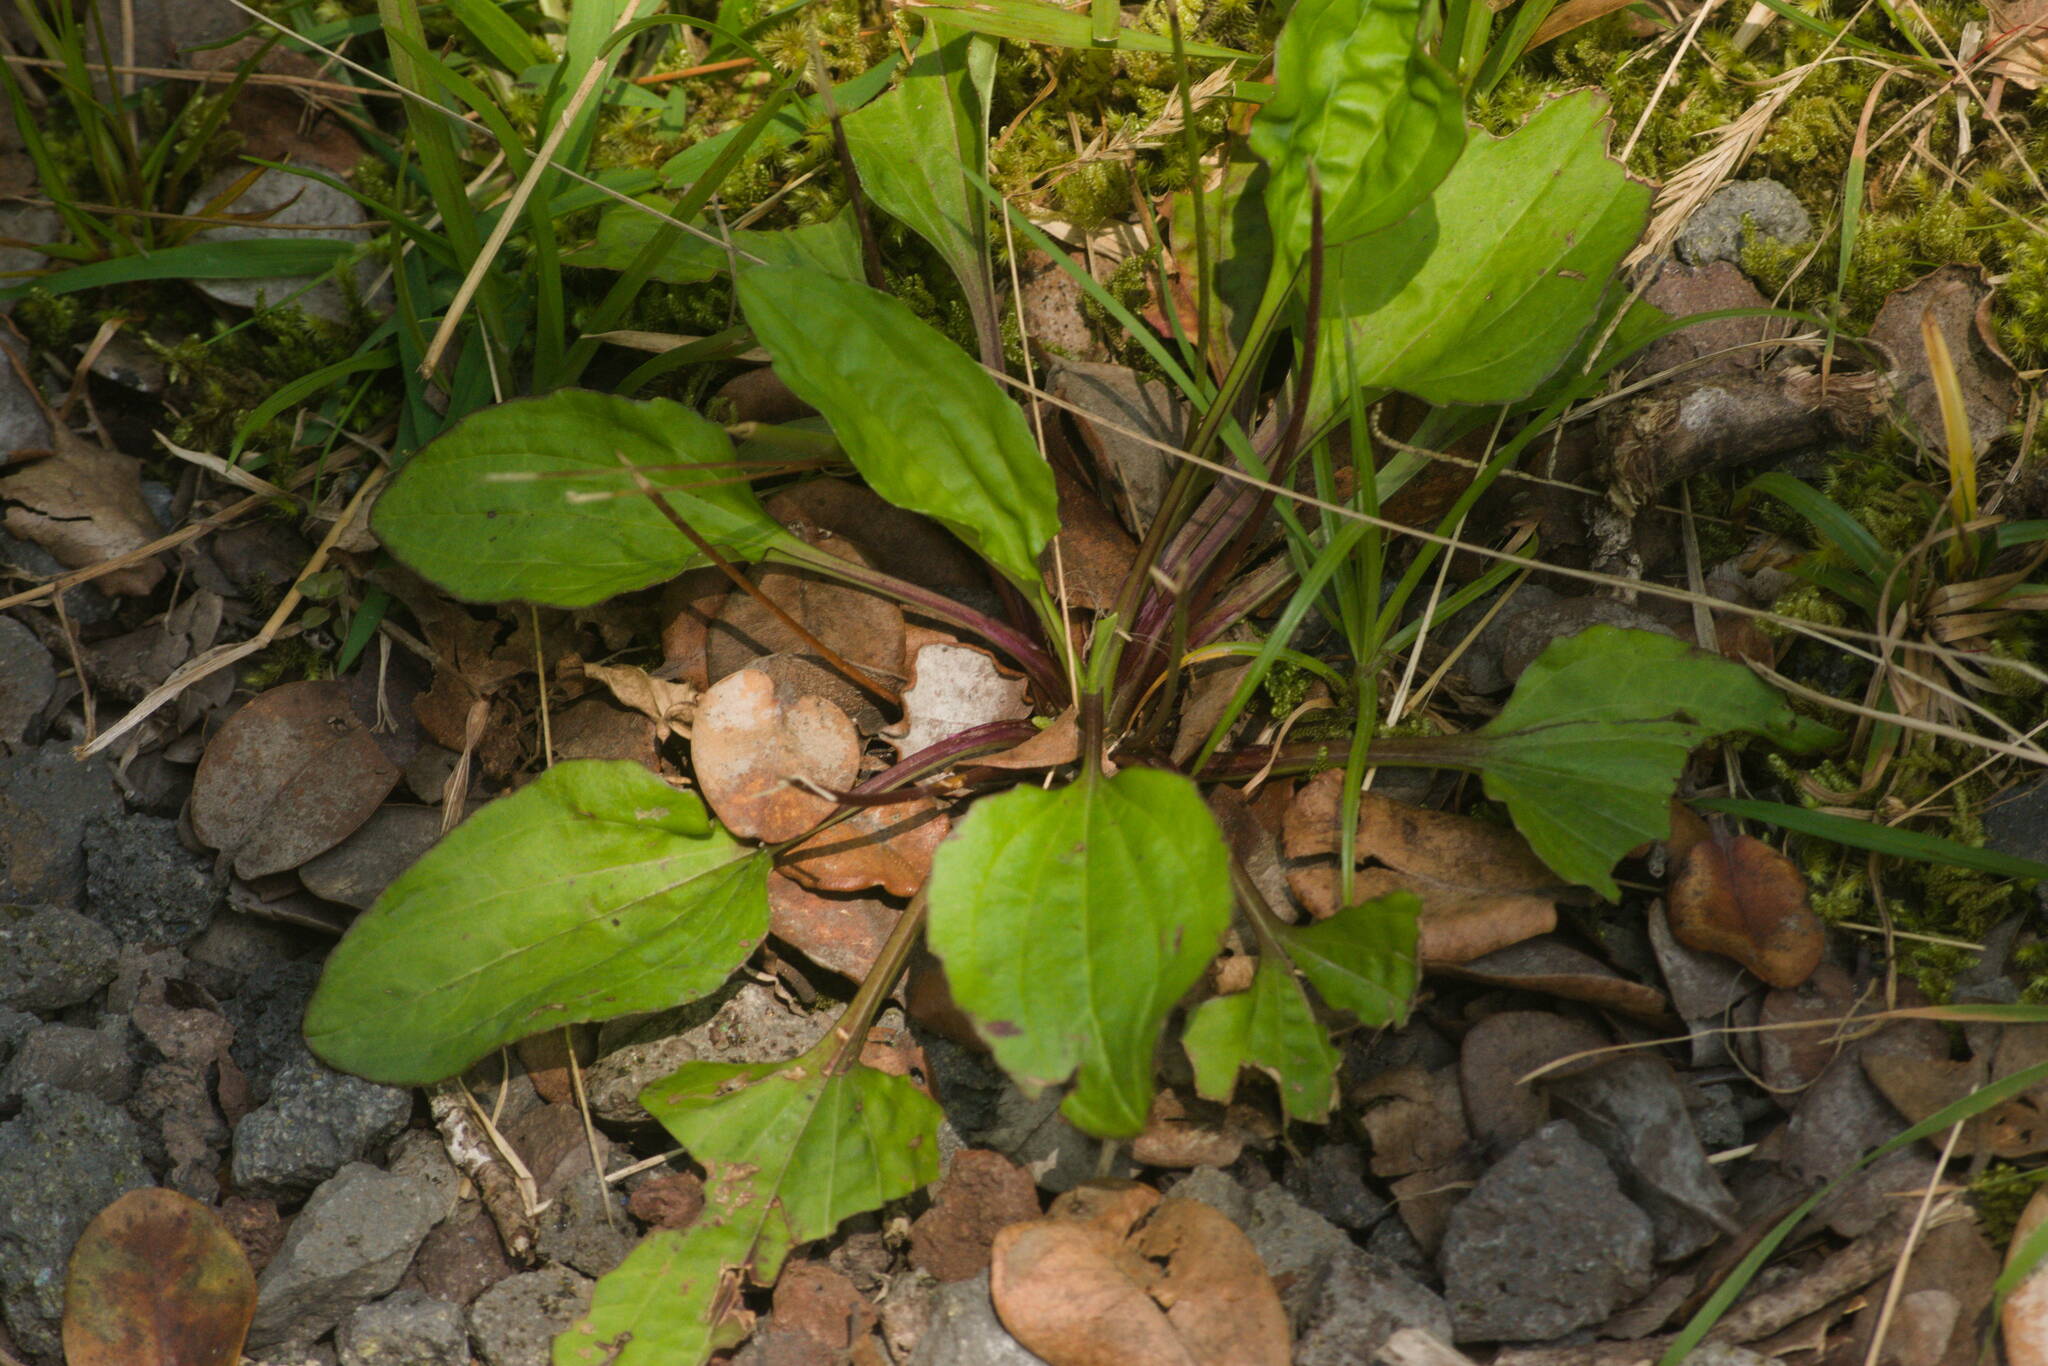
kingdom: Plantae
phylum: Tracheophyta
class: Magnoliopsida
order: Lamiales
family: Plantaginaceae
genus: Plantago
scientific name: Plantago rugelii
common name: American plantain
